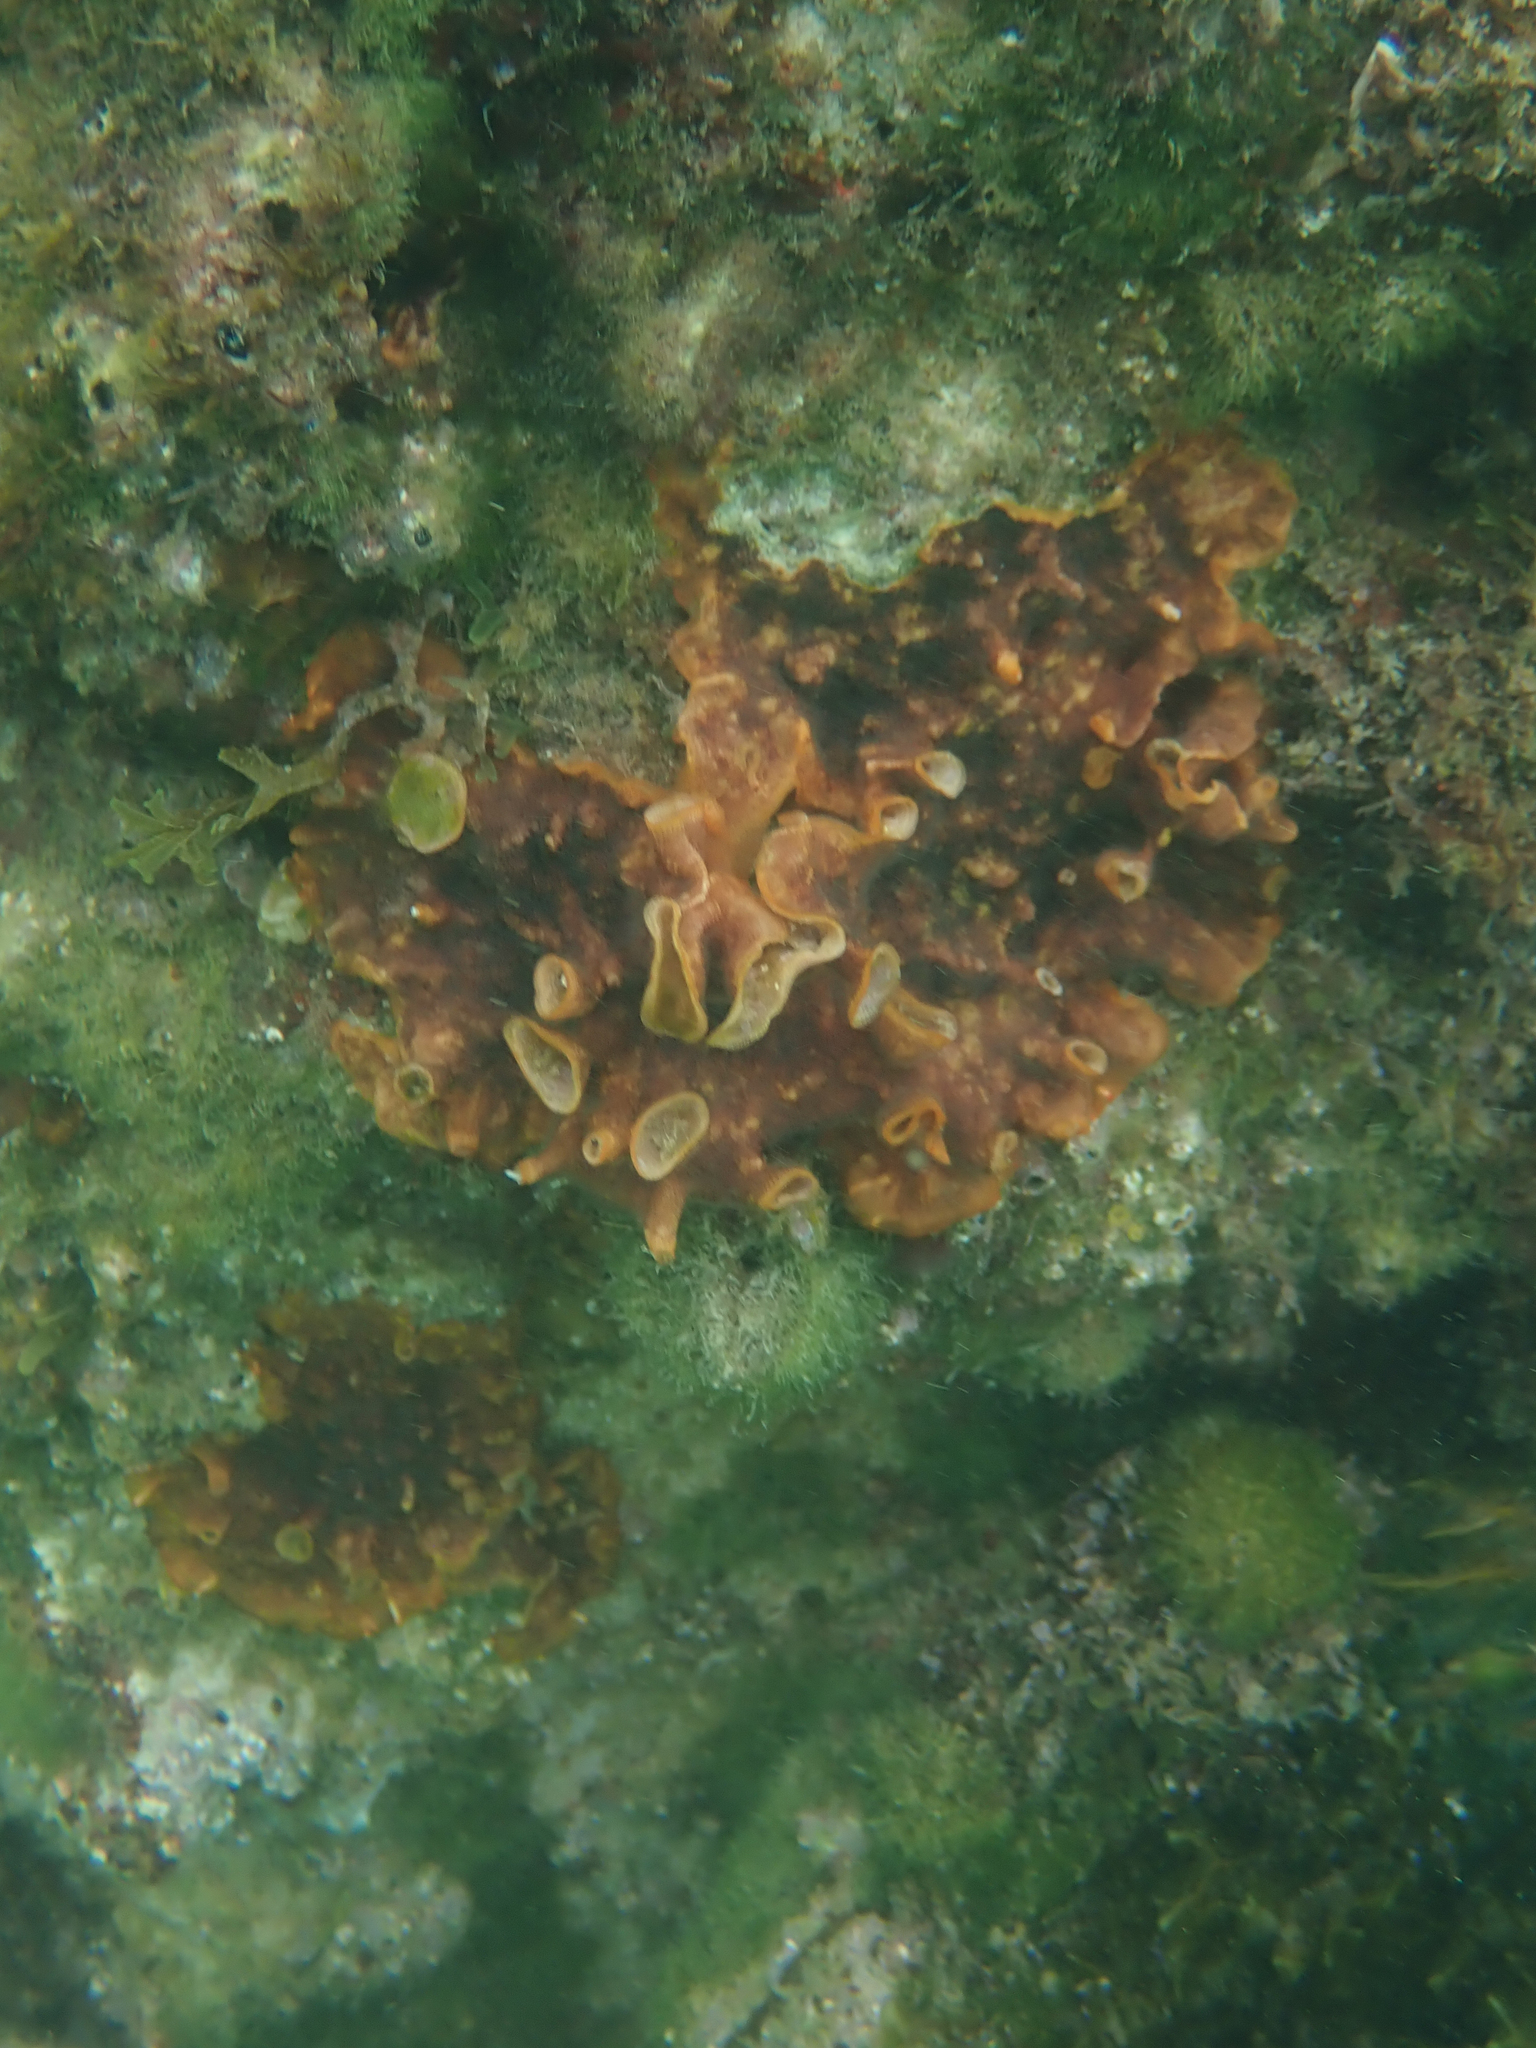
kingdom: Animalia
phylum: Bryozoa
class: Gymnolaemata
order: Cheilostomatida
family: Schizoporellidae
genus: Schizoporella
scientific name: Schizoporella errata
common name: Branching bryozoan
